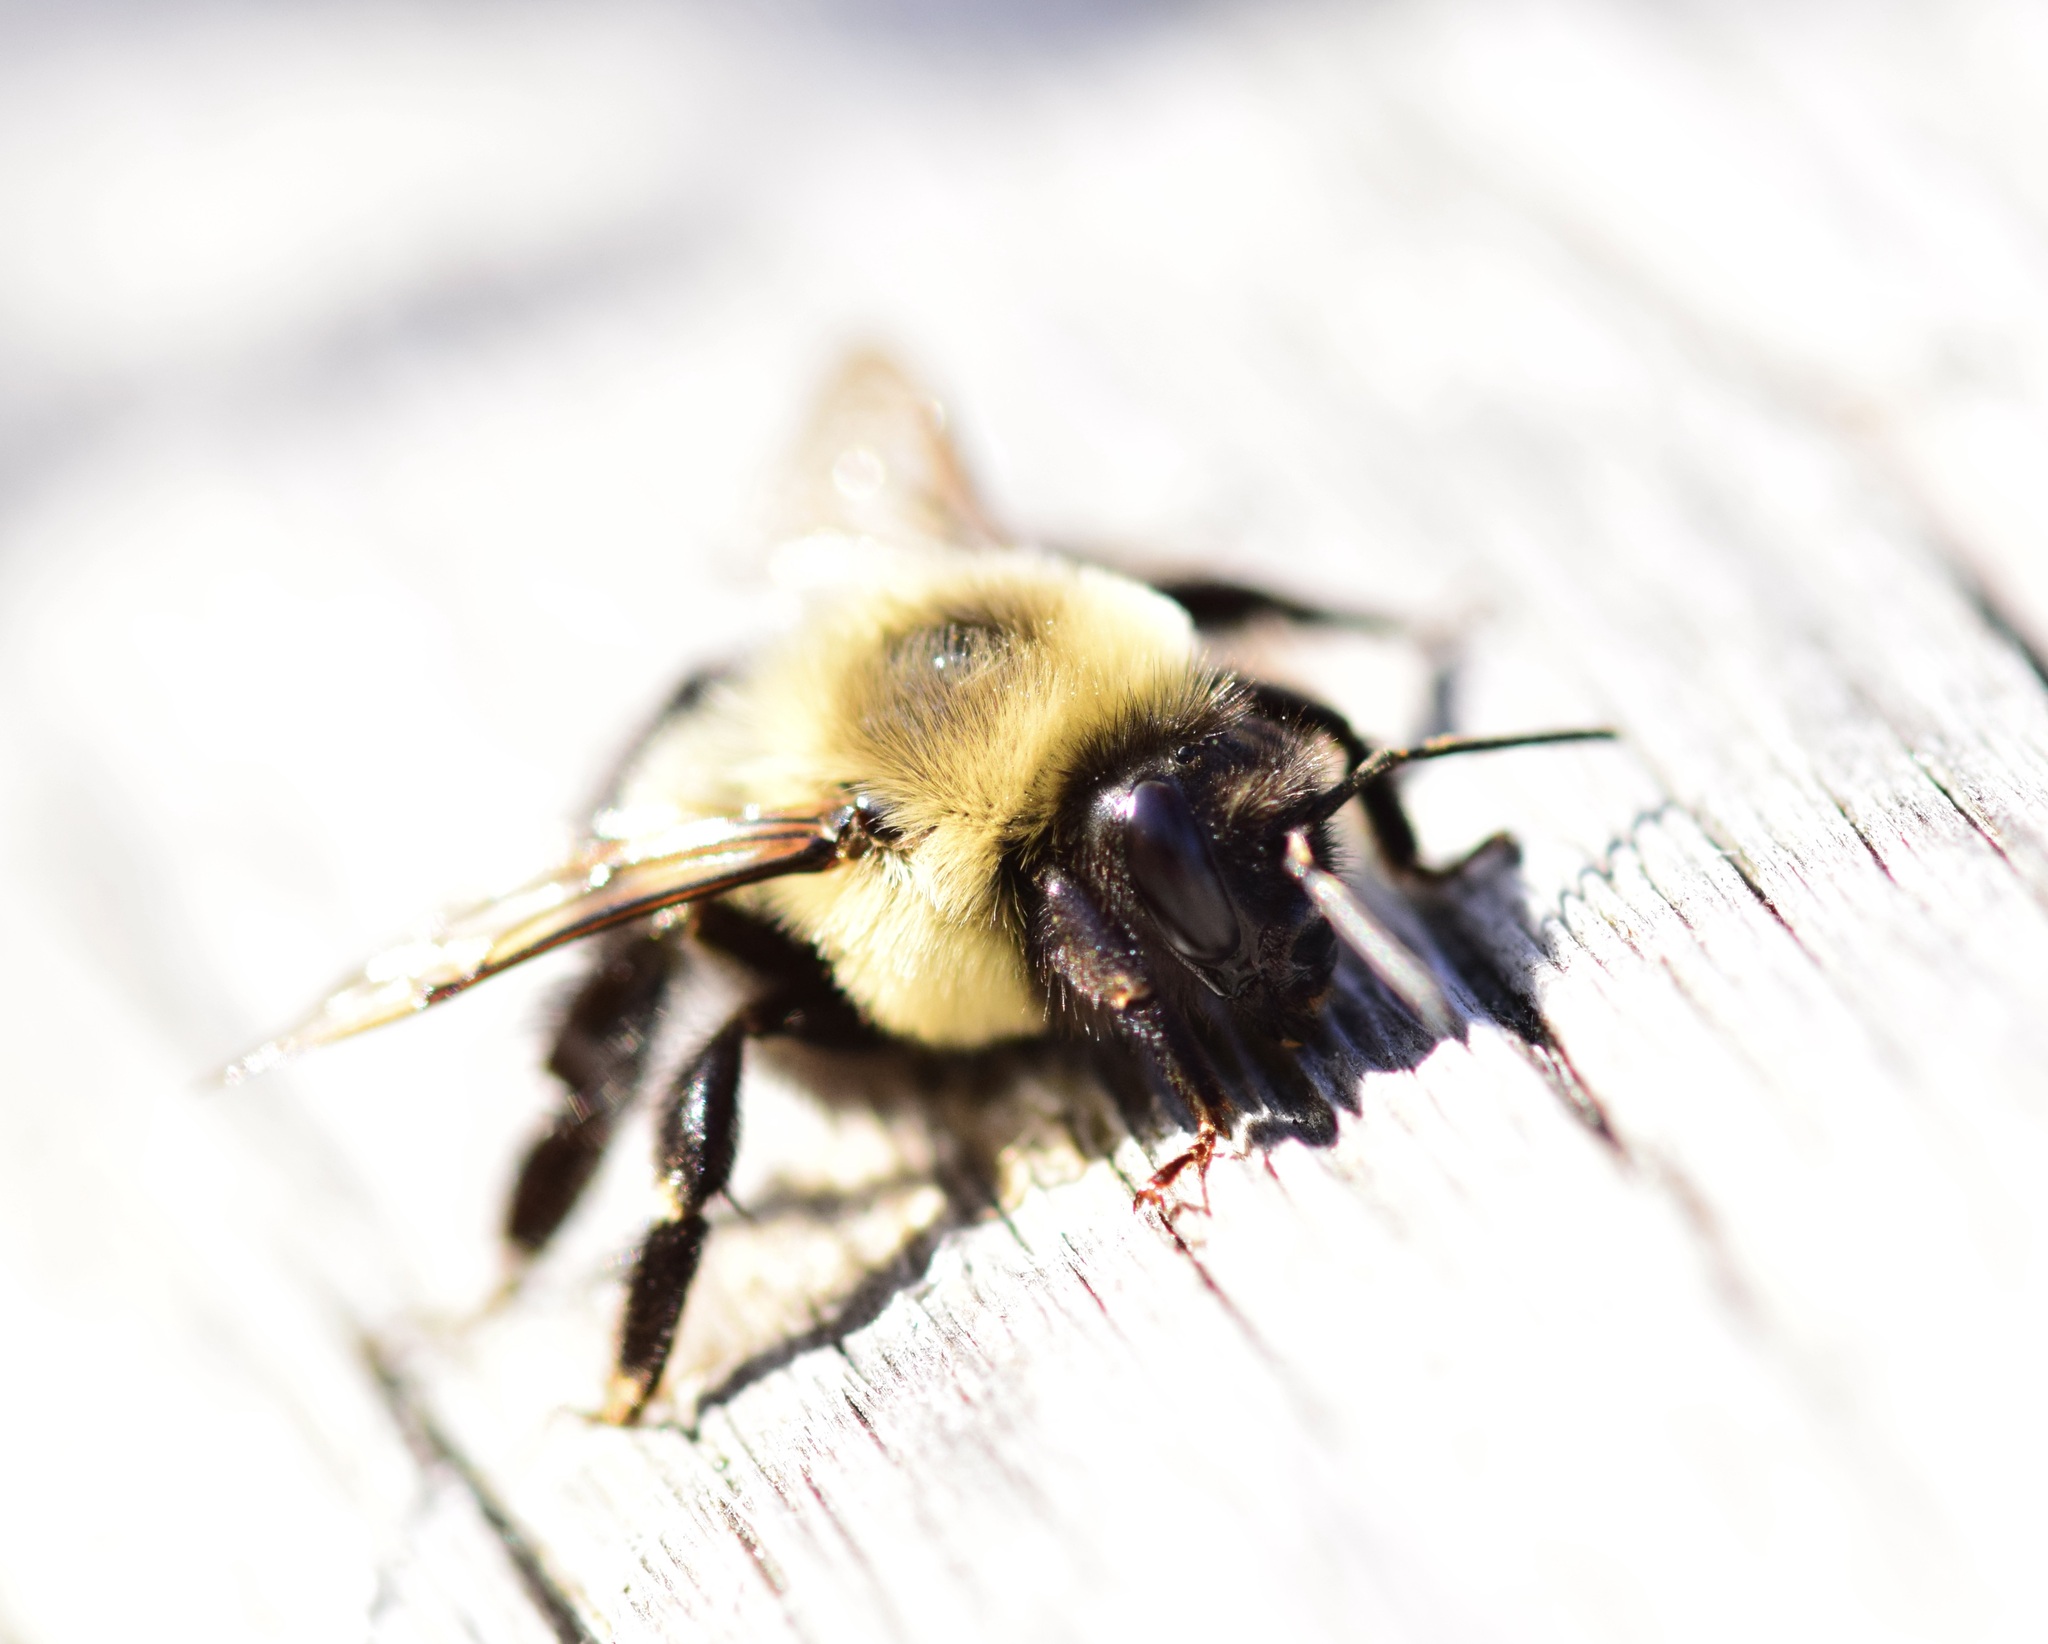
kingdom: Animalia
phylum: Arthropoda
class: Insecta
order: Hymenoptera
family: Apidae
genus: Bombus
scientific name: Bombus impatiens
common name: Common eastern bumble bee
